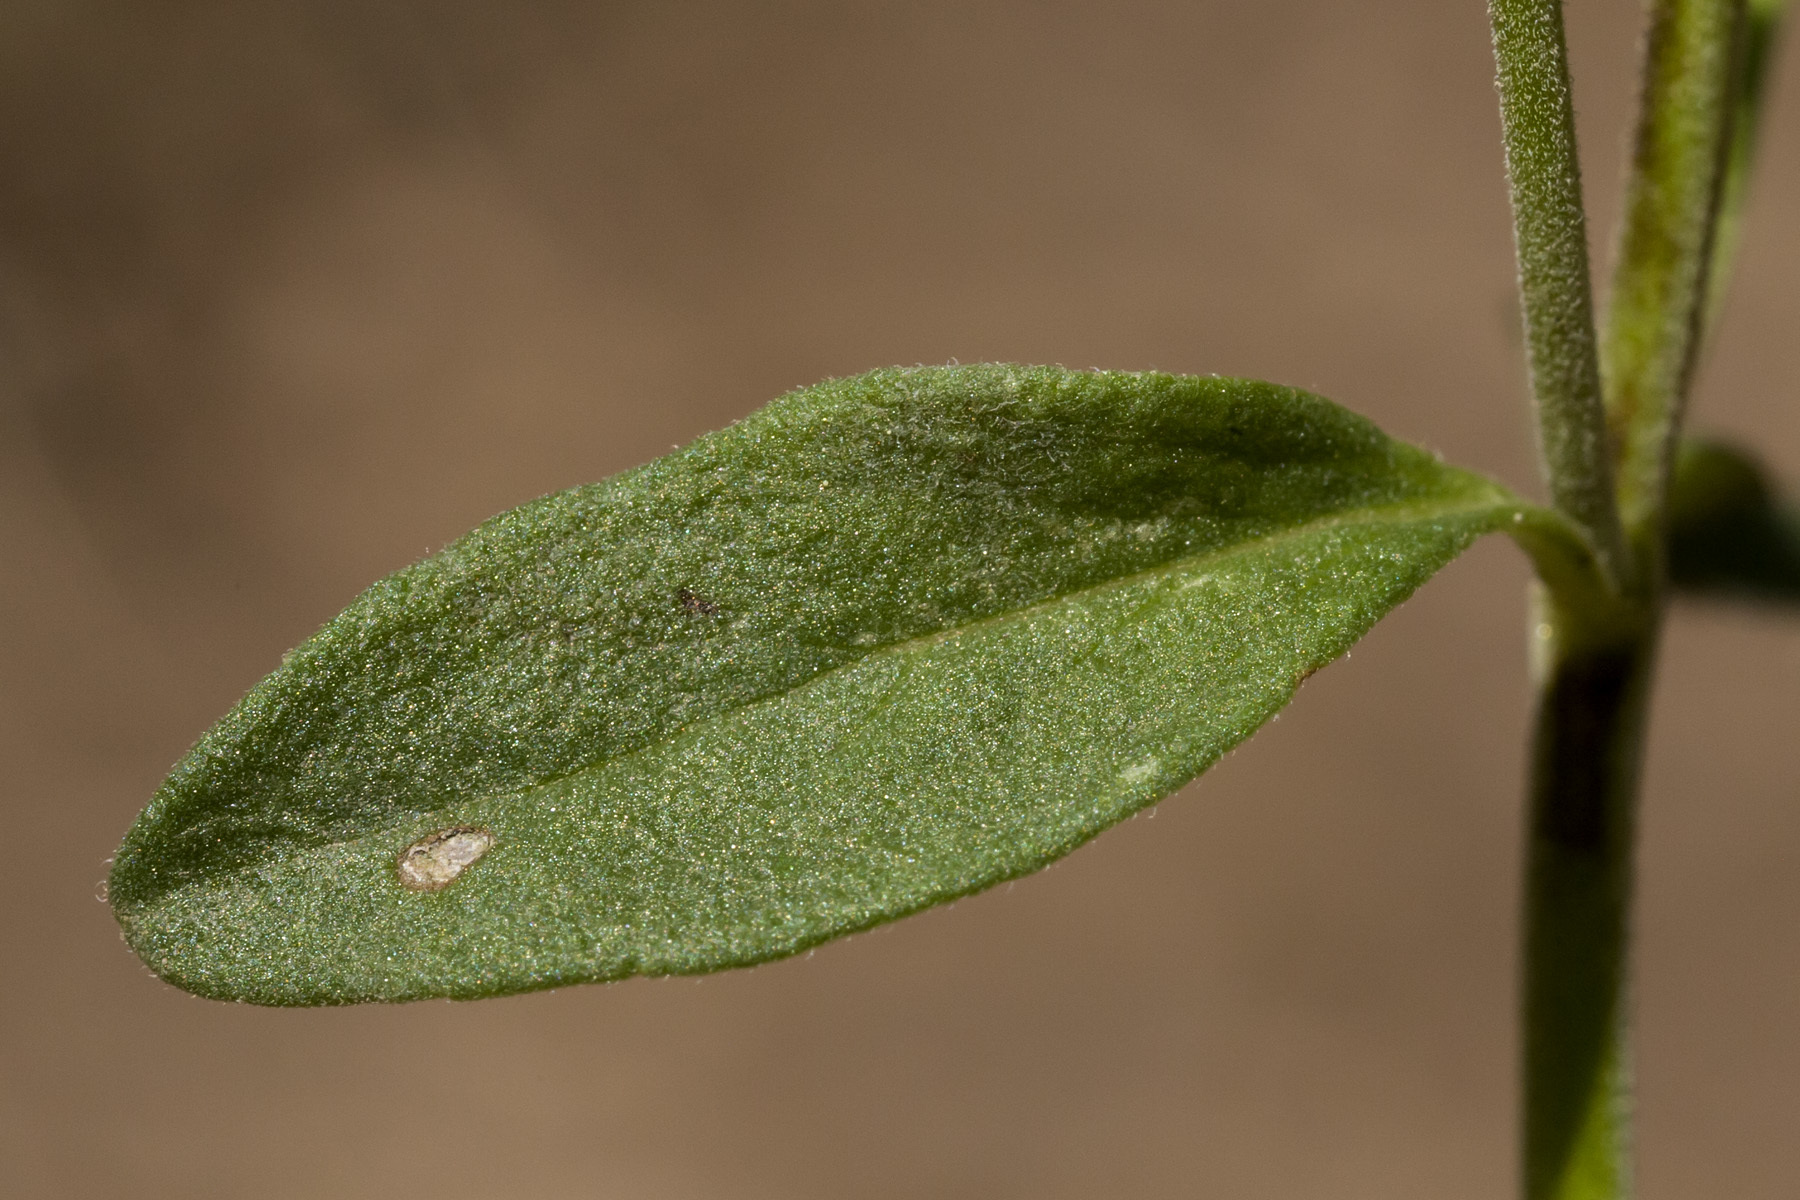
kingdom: Plantae
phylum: Tracheophyta
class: Magnoliopsida
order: Lamiales
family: Lamiaceae
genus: Hedeoma
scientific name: Hedeoma pulcherrima
